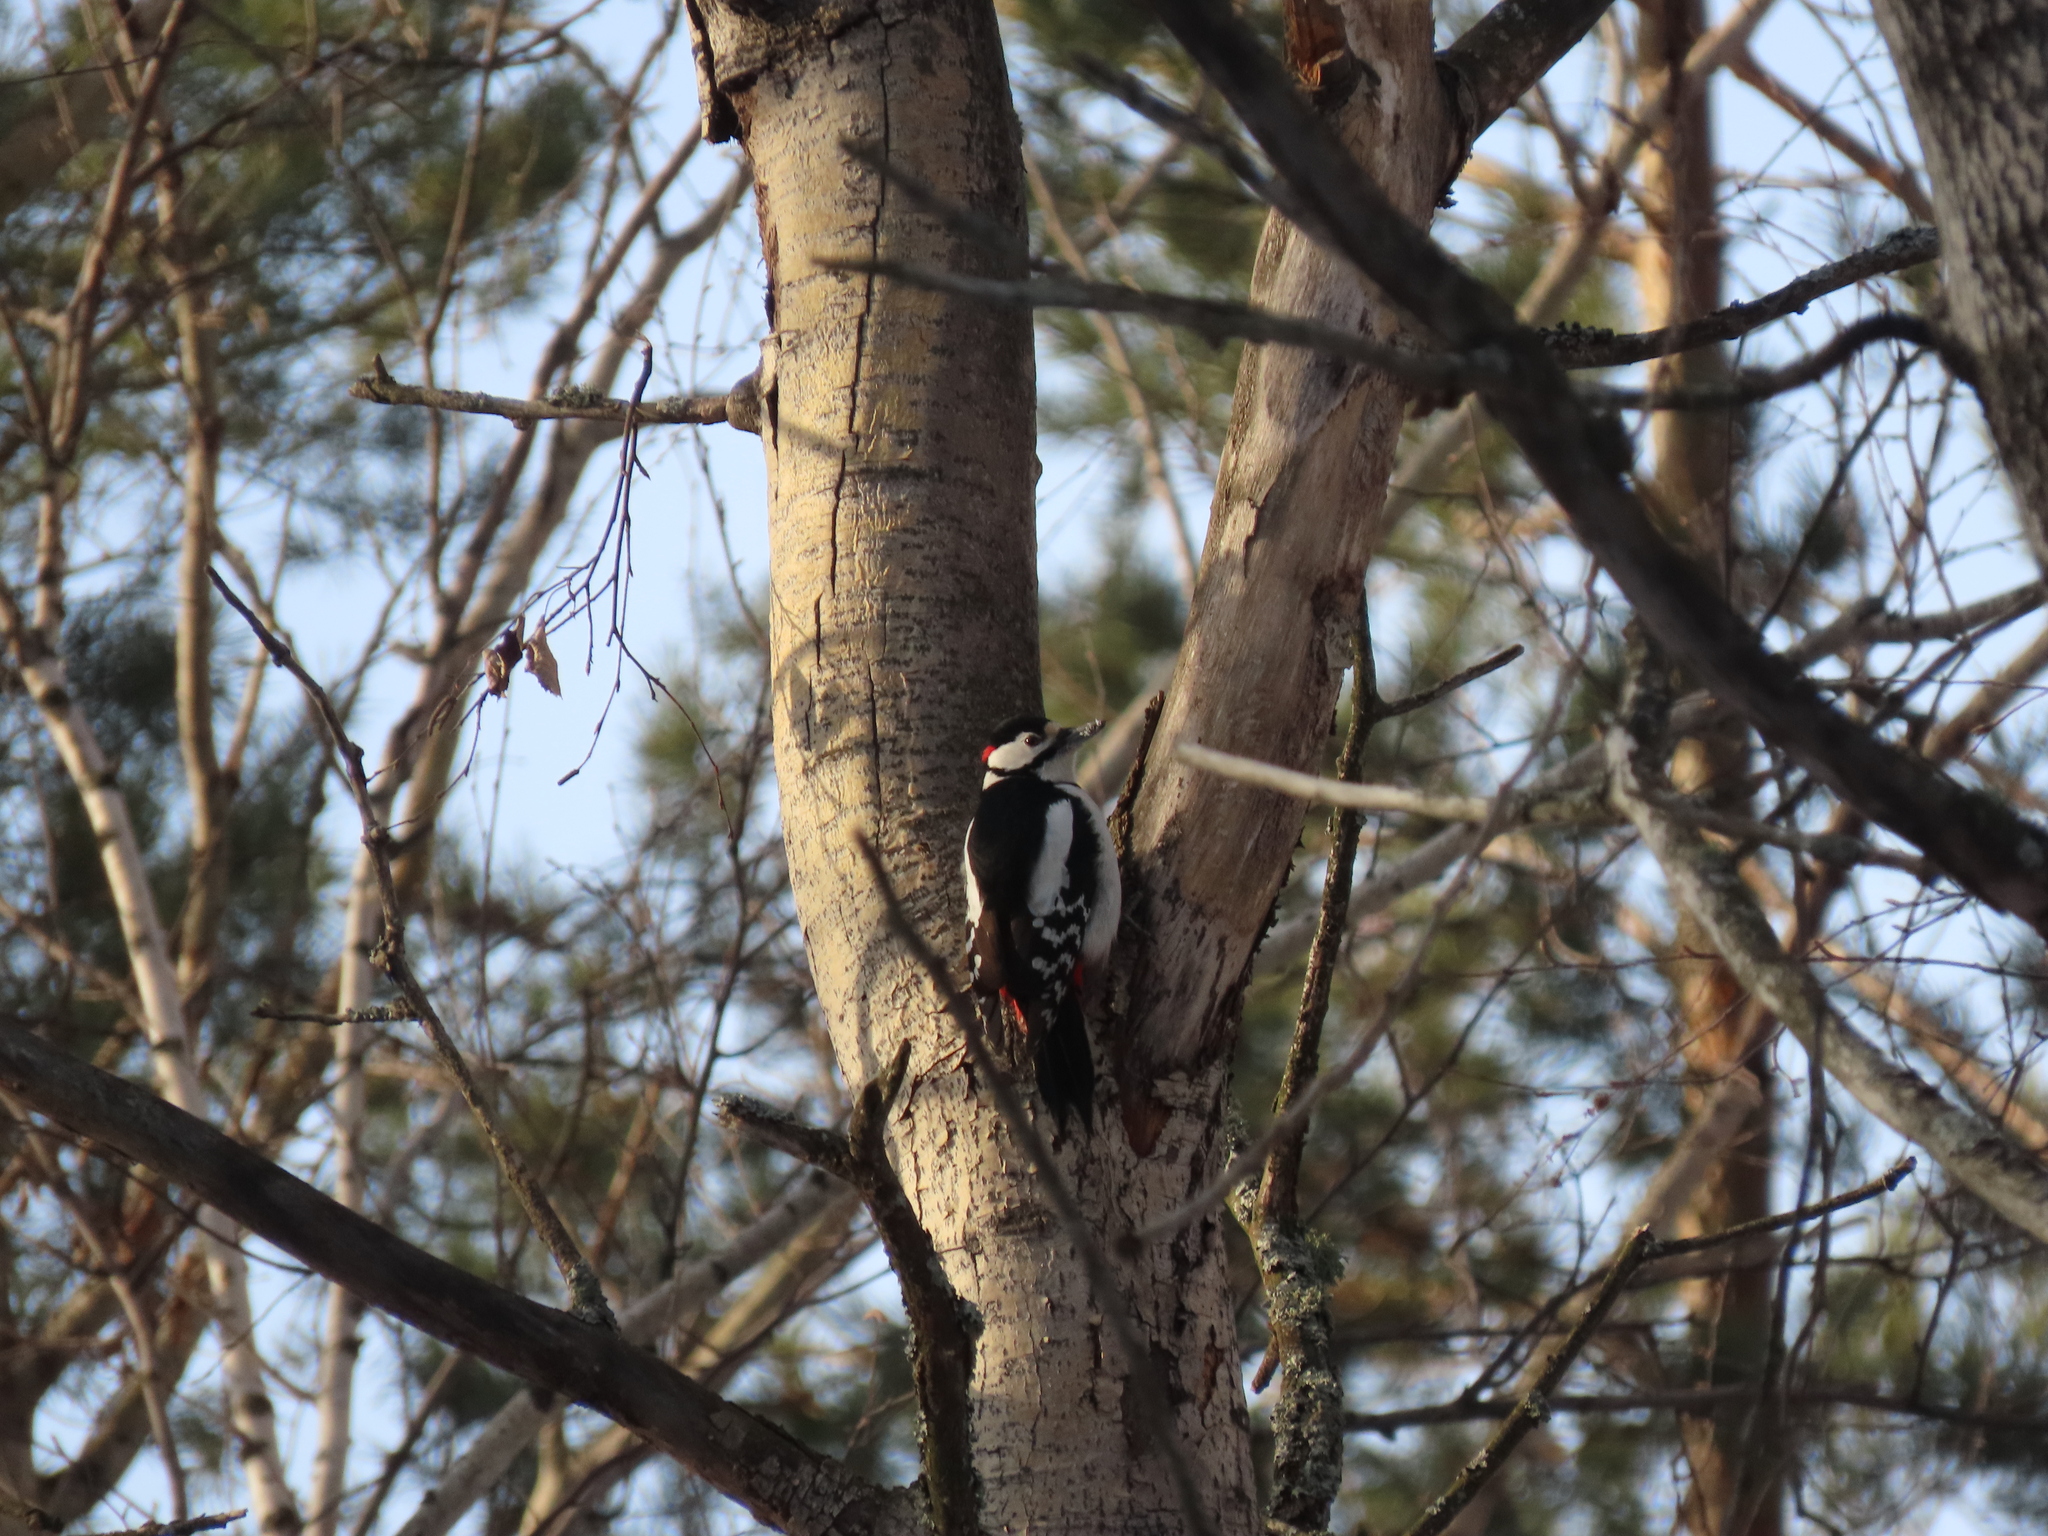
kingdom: Animalia
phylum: Chordata
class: Aves
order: Piciformes
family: Picidae
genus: Dendrocopos
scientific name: Dendrocopos major
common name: Great spotted woodpecker
